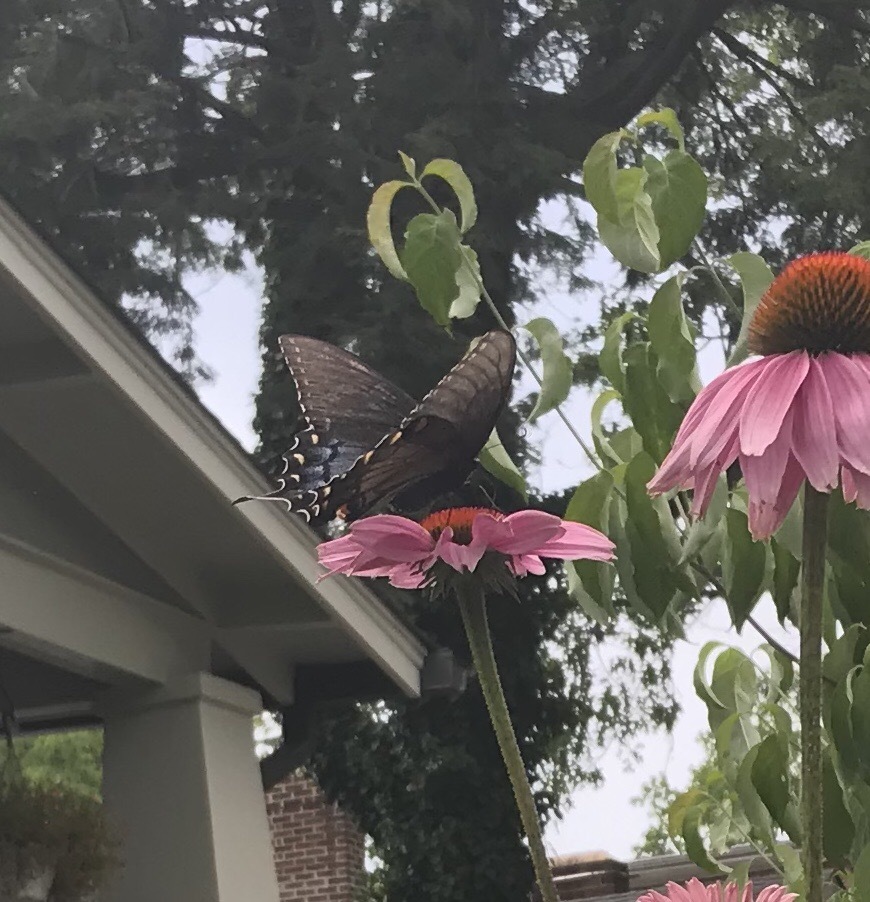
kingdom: Animalia
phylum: Arthropoda
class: Insecta
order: Lepidoptera
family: Papilionidae
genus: Papilio
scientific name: Papilio glaucus
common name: Tiger swallowtail
